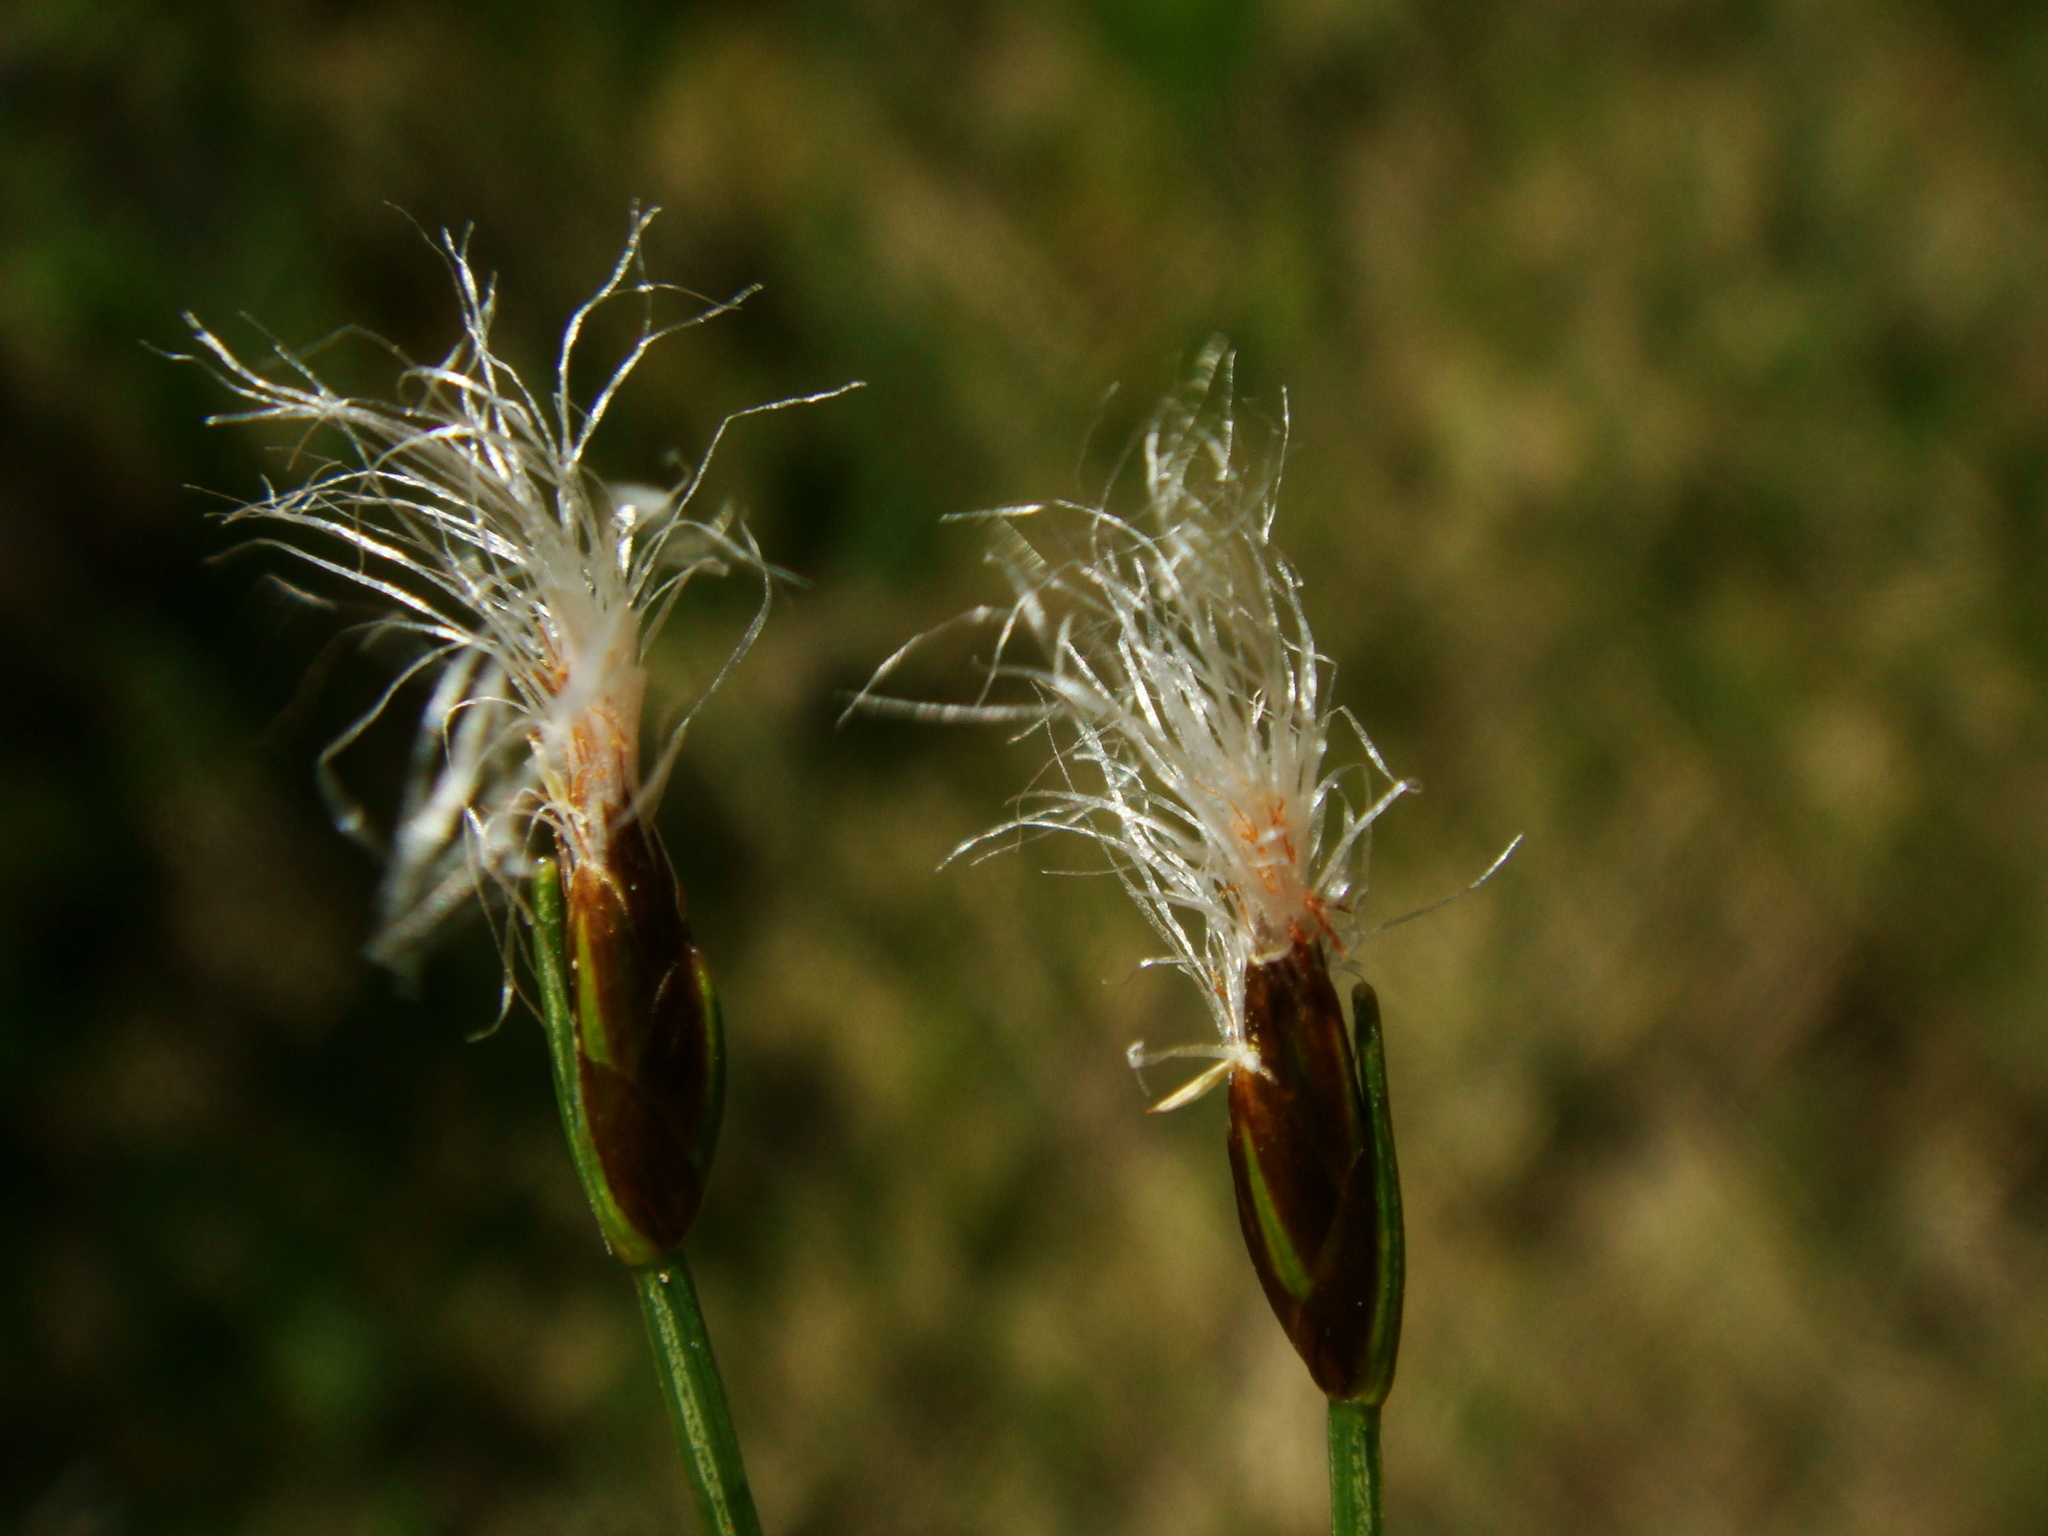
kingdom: Plantae
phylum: Tracheophyta
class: Liliopsida
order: Poales
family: Cyperaceae
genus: Trichophorum
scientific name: Trichophorum alpinum
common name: Alpine bulrush
